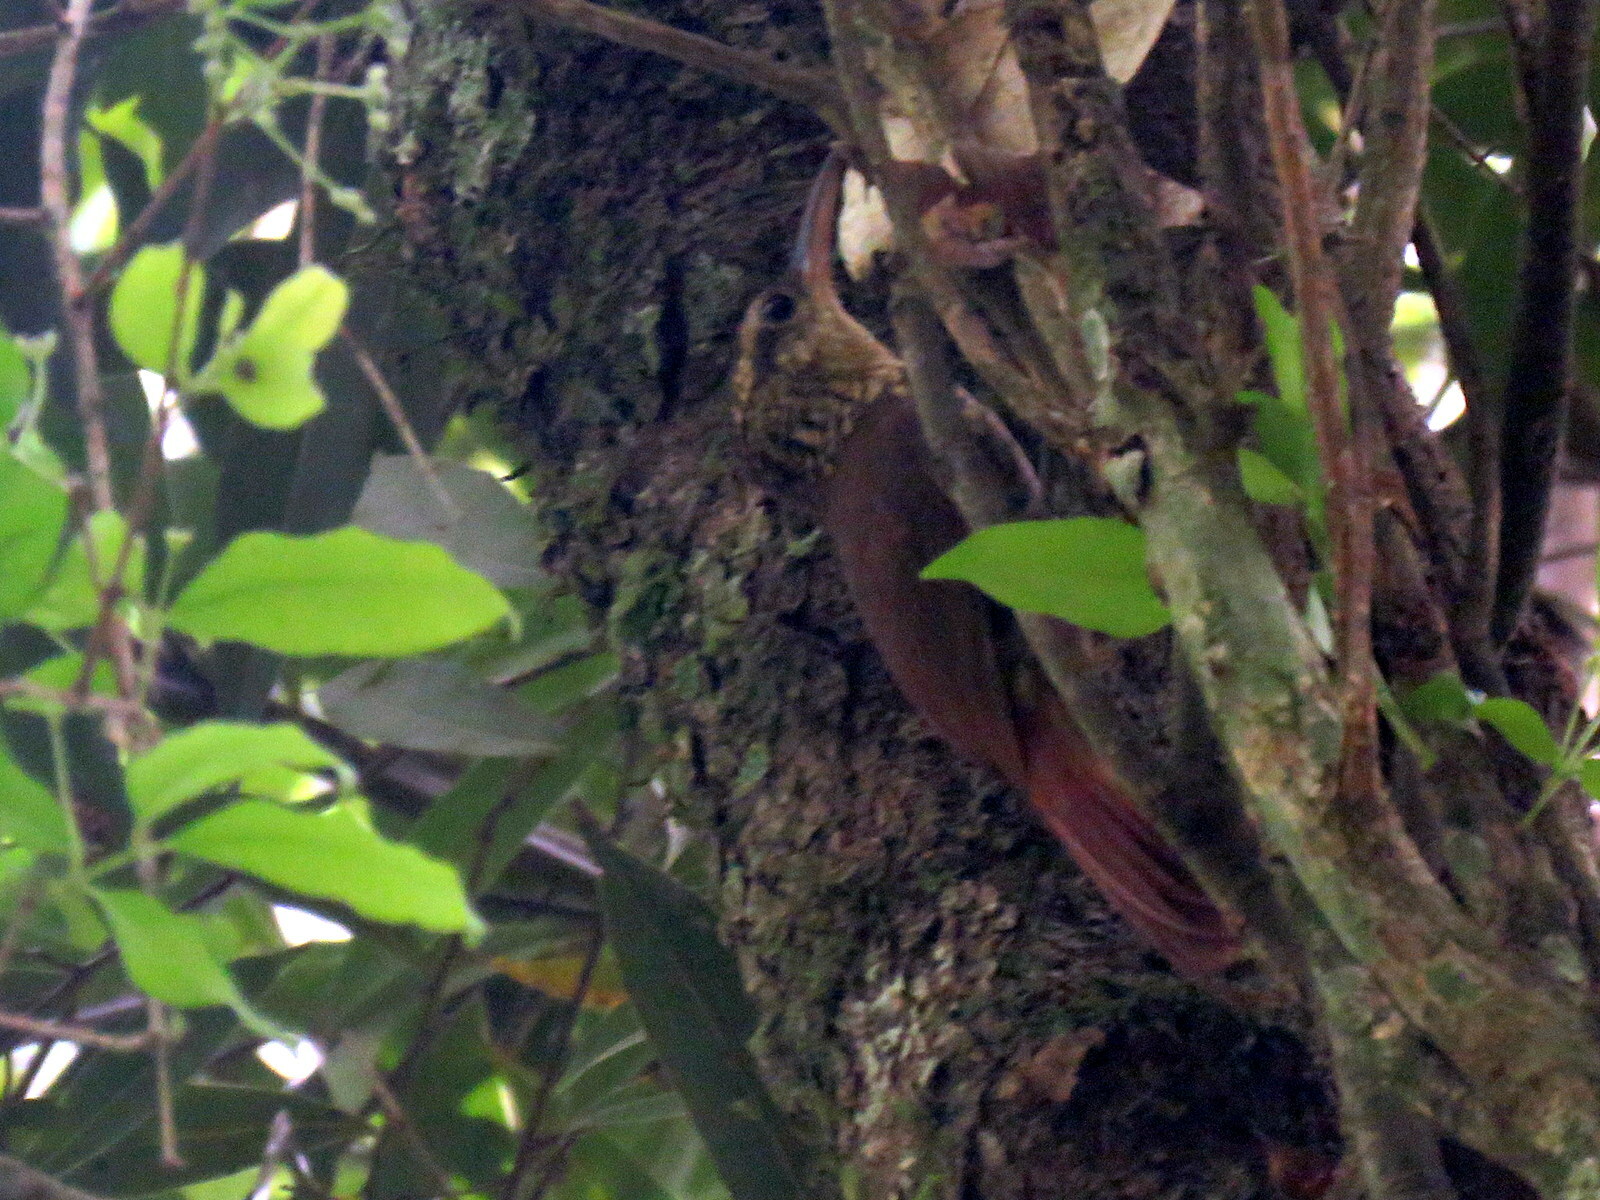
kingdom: Animalia
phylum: Chordata
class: Aves
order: Passeriformes
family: Furnariidae
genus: Xiphorhynchus
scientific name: Xiphorhynchus fuscus
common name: Lesser woodcreeper
